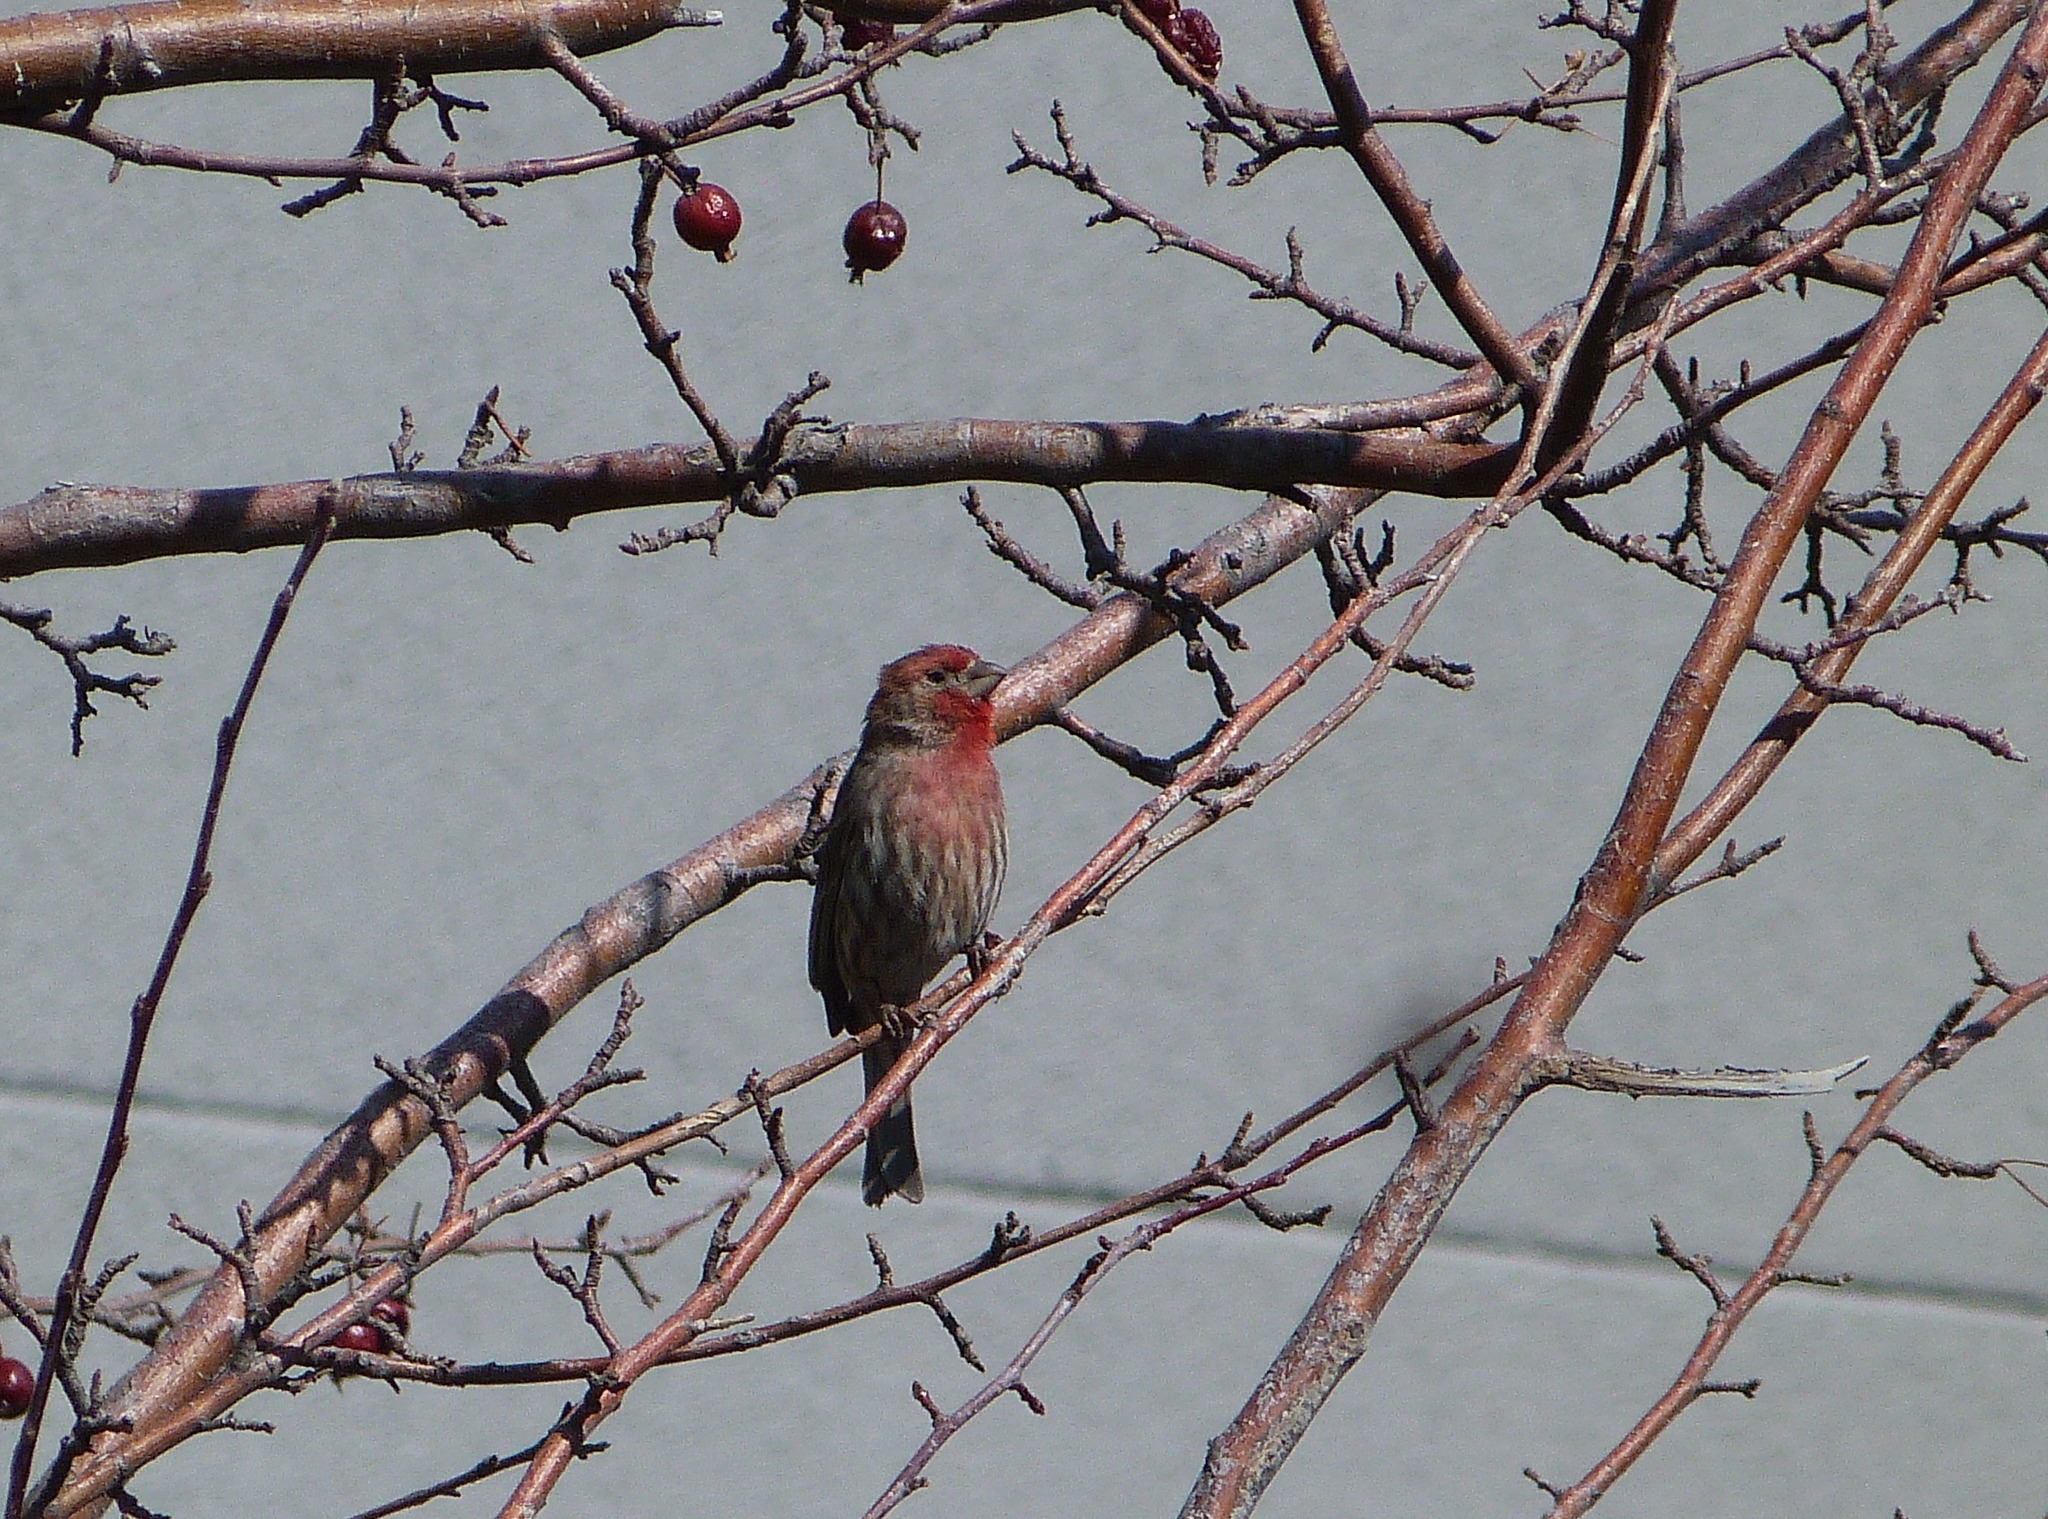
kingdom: Animalia
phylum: Chordata
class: Aves
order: Passeriformes
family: Fringillidae
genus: Haemorhous
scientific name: Haemorhous mexicanus
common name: House finch
